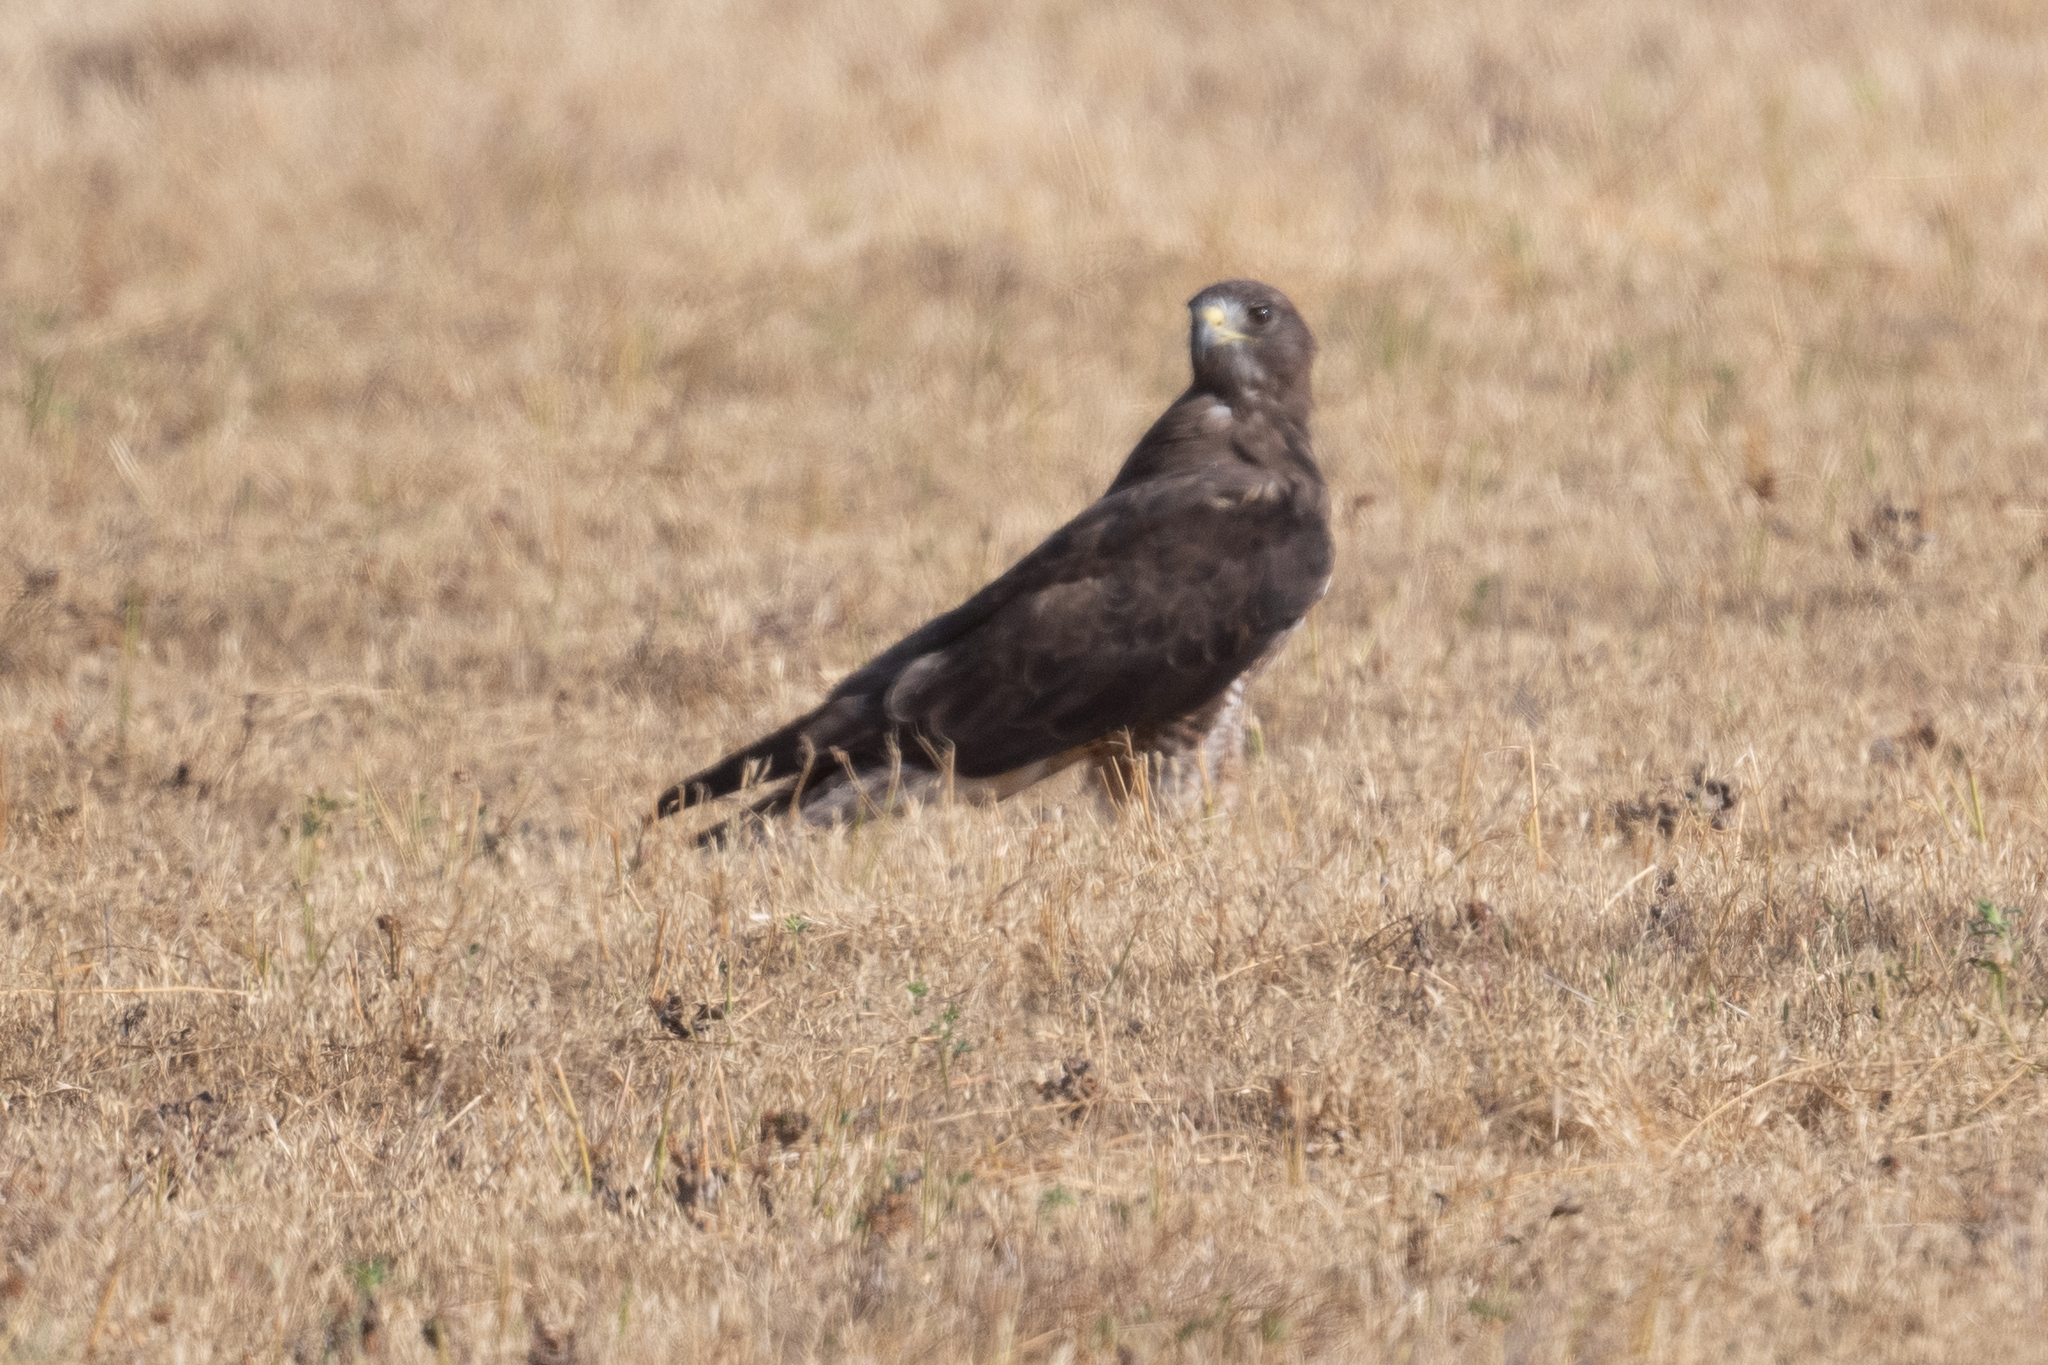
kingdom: Animalia
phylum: Chordata
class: Aves
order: Accipitriformes
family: Accipitridae
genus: Buteo
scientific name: Buteo swainsoni
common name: Swainson's hawk
